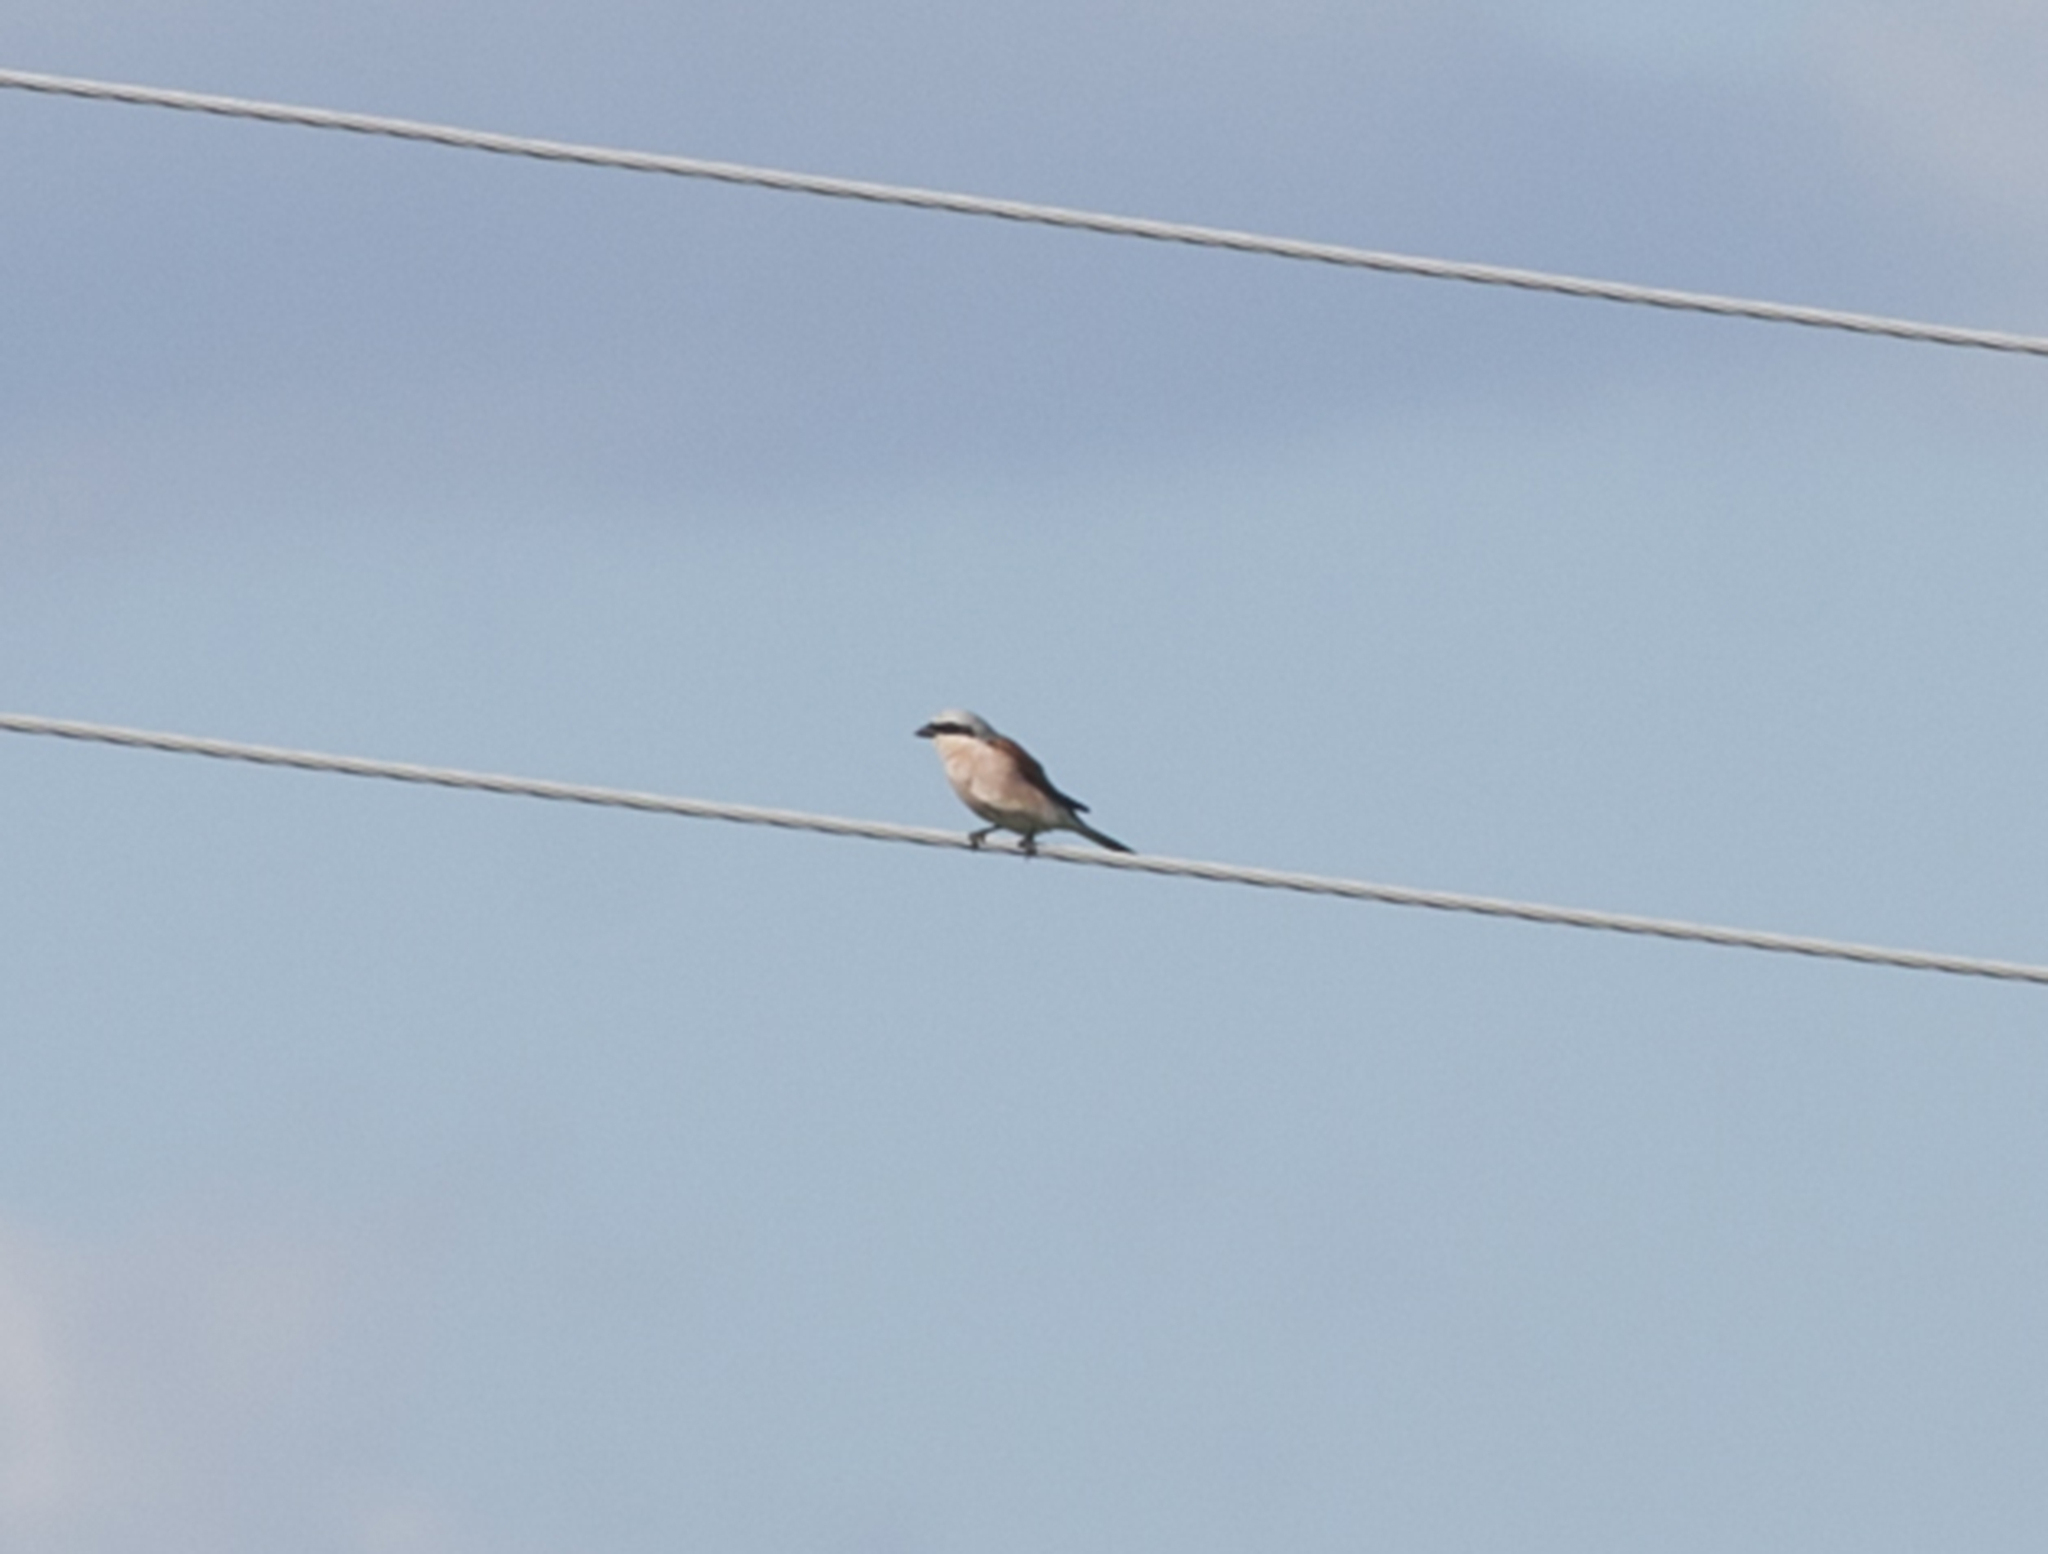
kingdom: Animalia
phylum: Chordata
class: Aves
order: Passeriformes
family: Laniidae
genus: Lanius
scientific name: Lanius collurio
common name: Red-backed shrike
